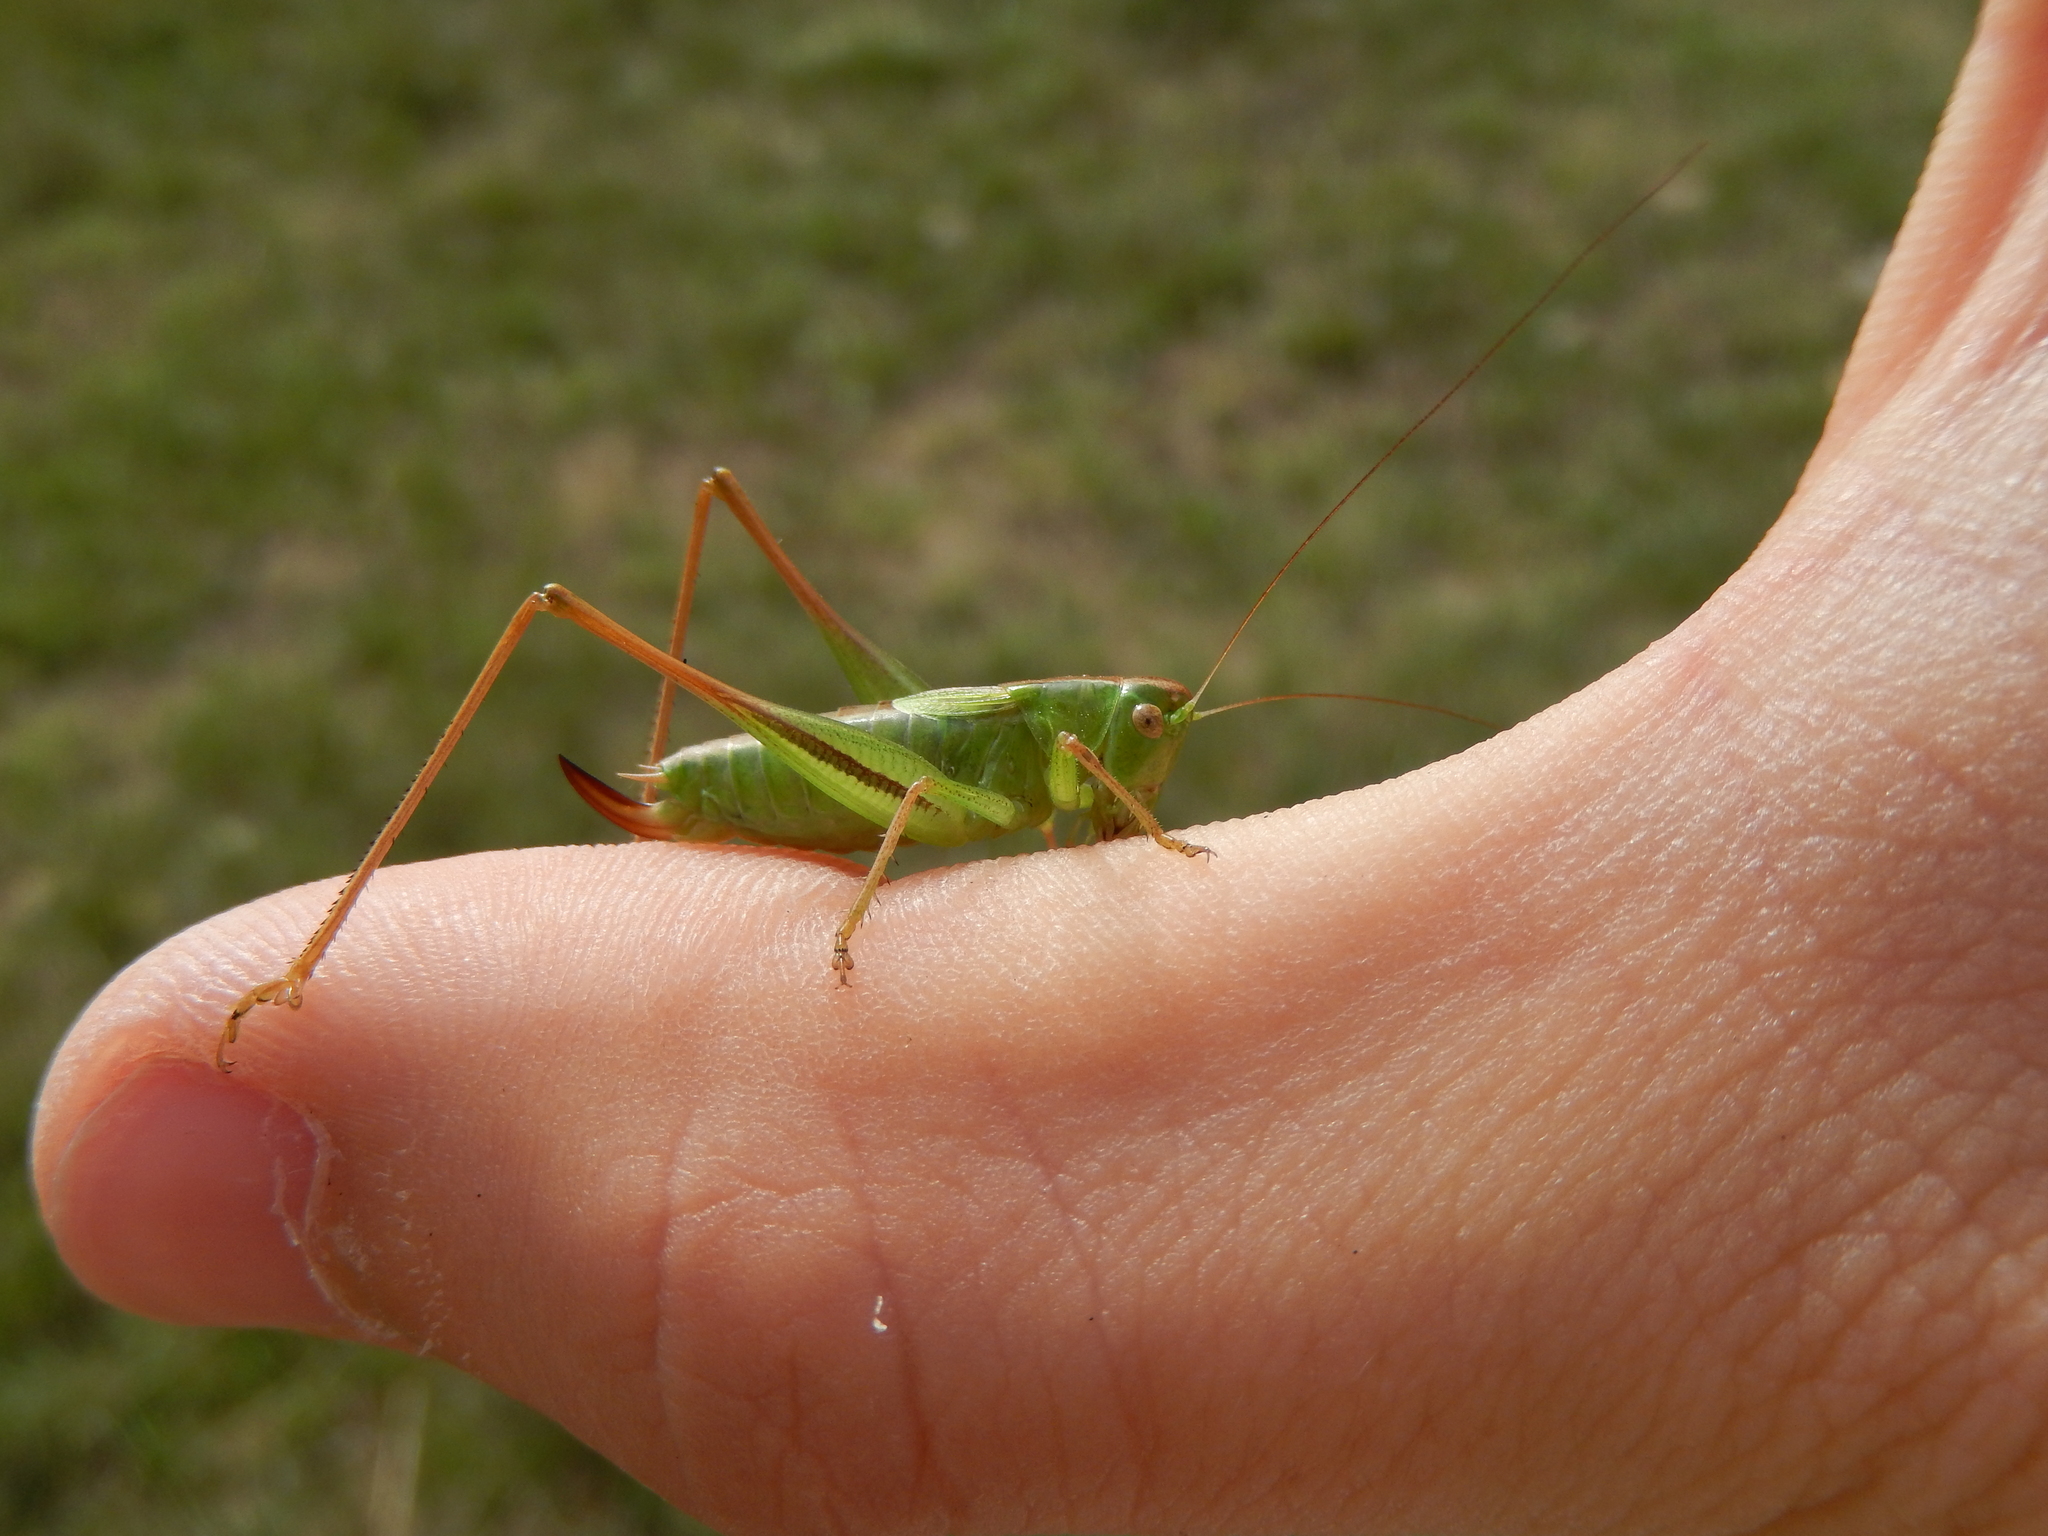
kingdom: Animalia
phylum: Arthropoda
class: Insecta
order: Orthoptera
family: Tettigoniidae
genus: Bicolorana
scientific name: Bicolorana bicolor
